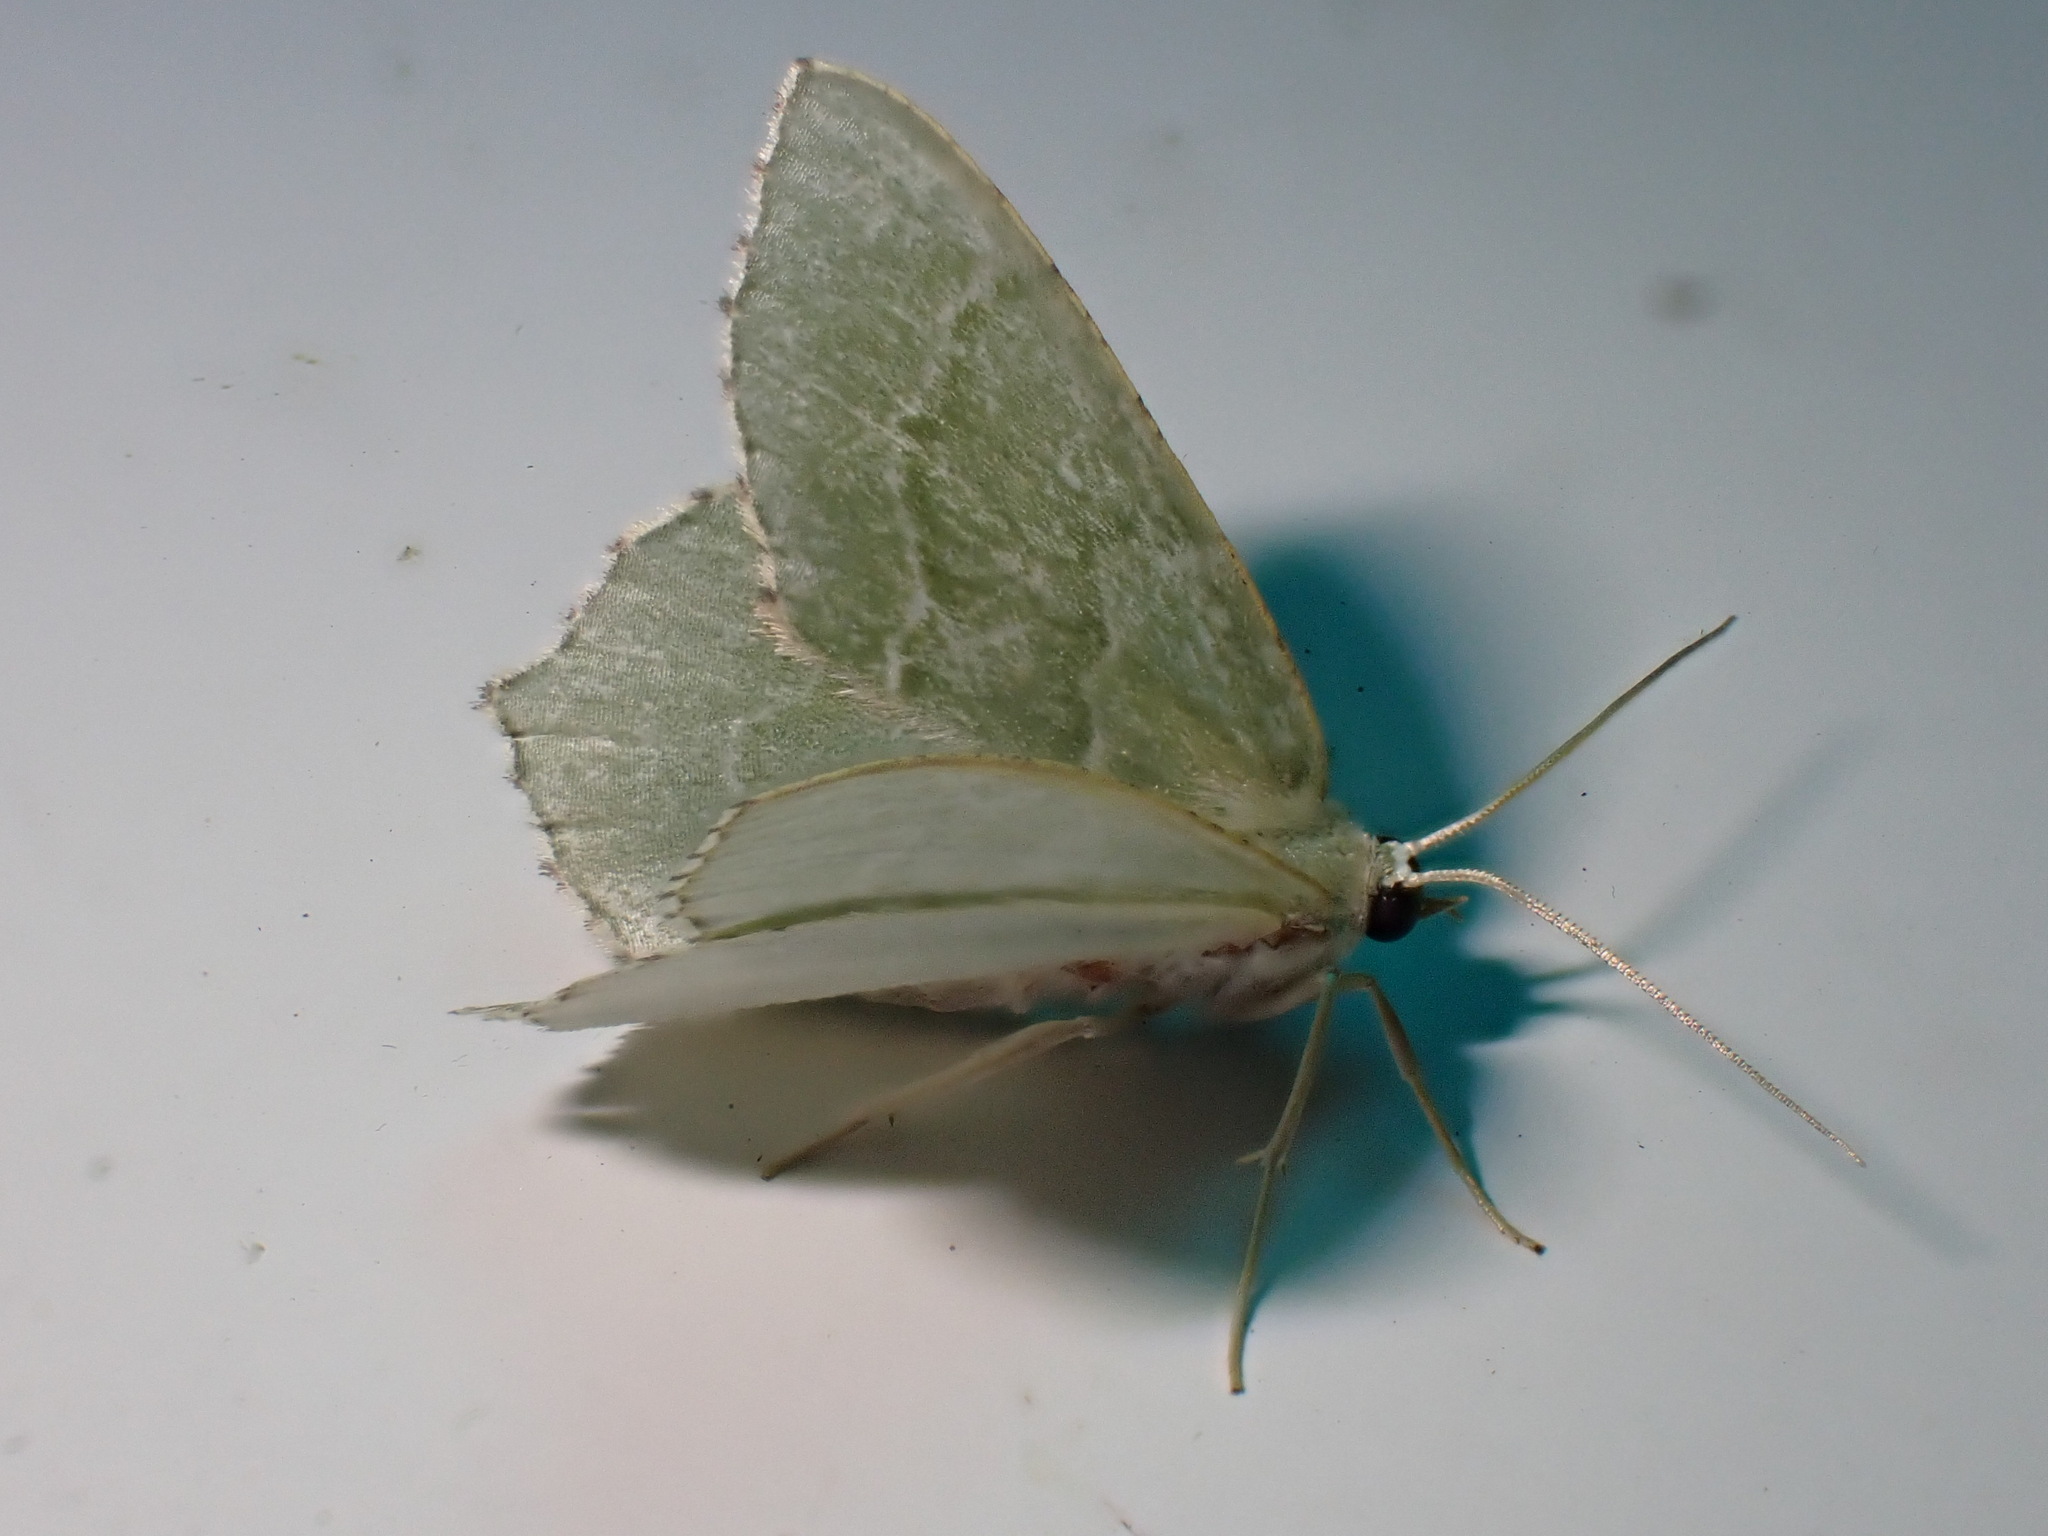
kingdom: Animalia
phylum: Arthropoda
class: Insecta
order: Lepidoptera
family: Geometridae
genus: Hemithea
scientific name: Hemithea aestivaria
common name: Common emerald
